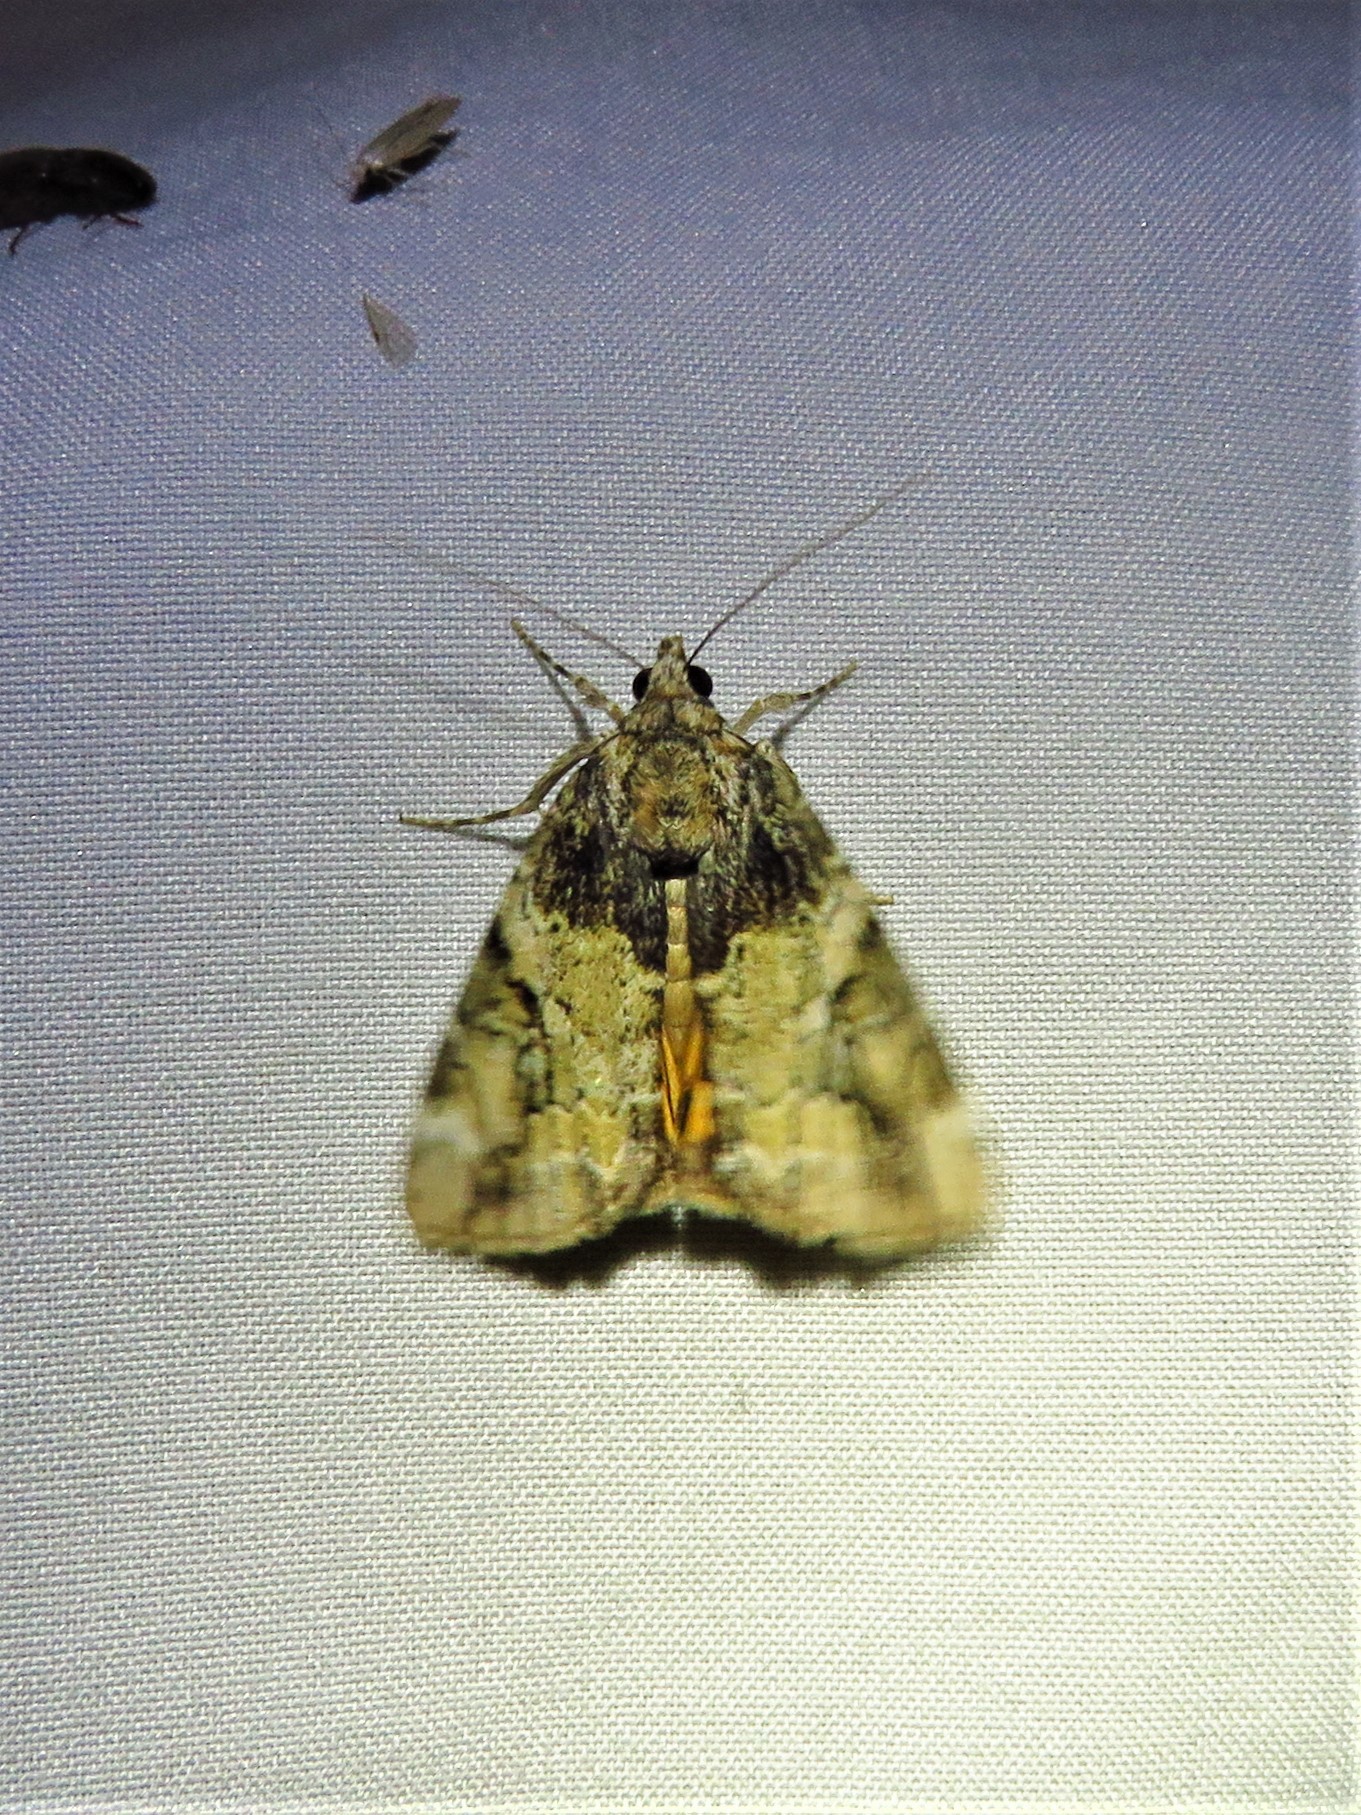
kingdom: Animalia
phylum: Arthropoda
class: Insecta
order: Lepidoptera
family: Erebidae
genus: Catocala
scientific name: Catocala micronympha
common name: Little nymph underwing
